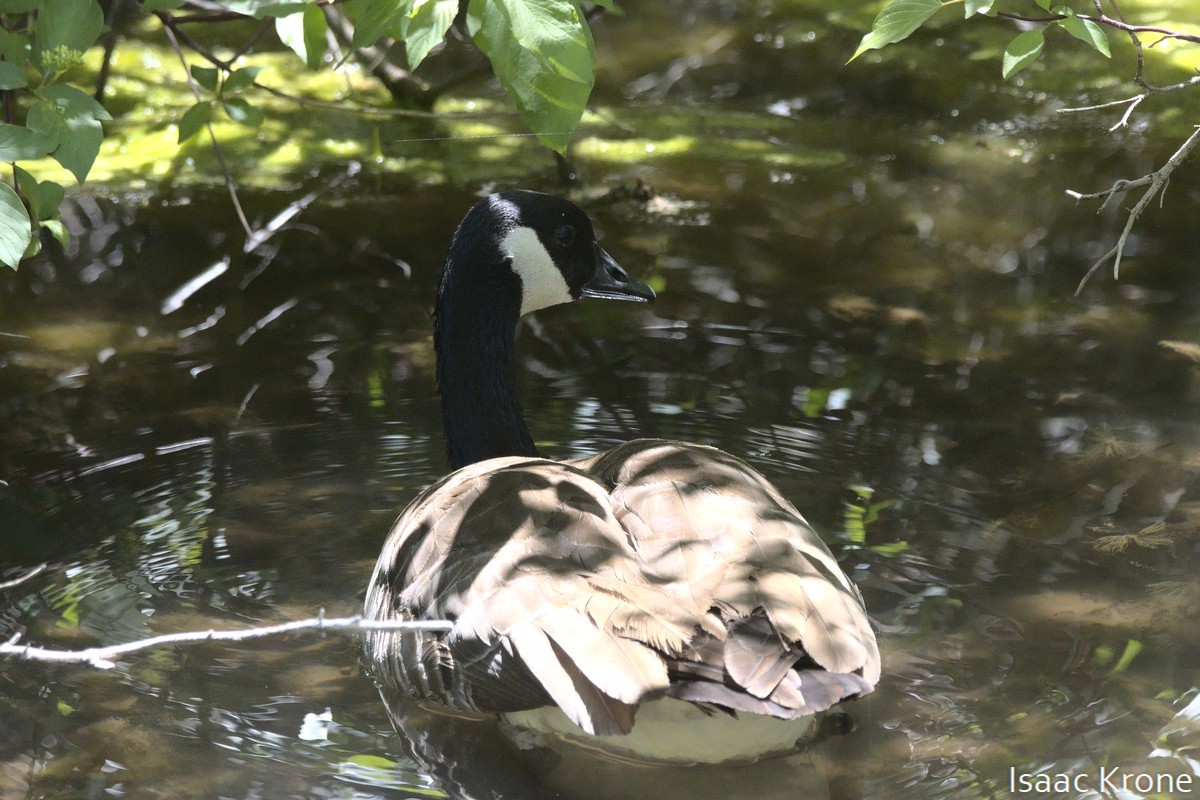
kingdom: Animalia
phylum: Chordata
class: Aves
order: Anseriformes
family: Anatidae
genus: Branta
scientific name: Branta canadensis
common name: Canada goose
